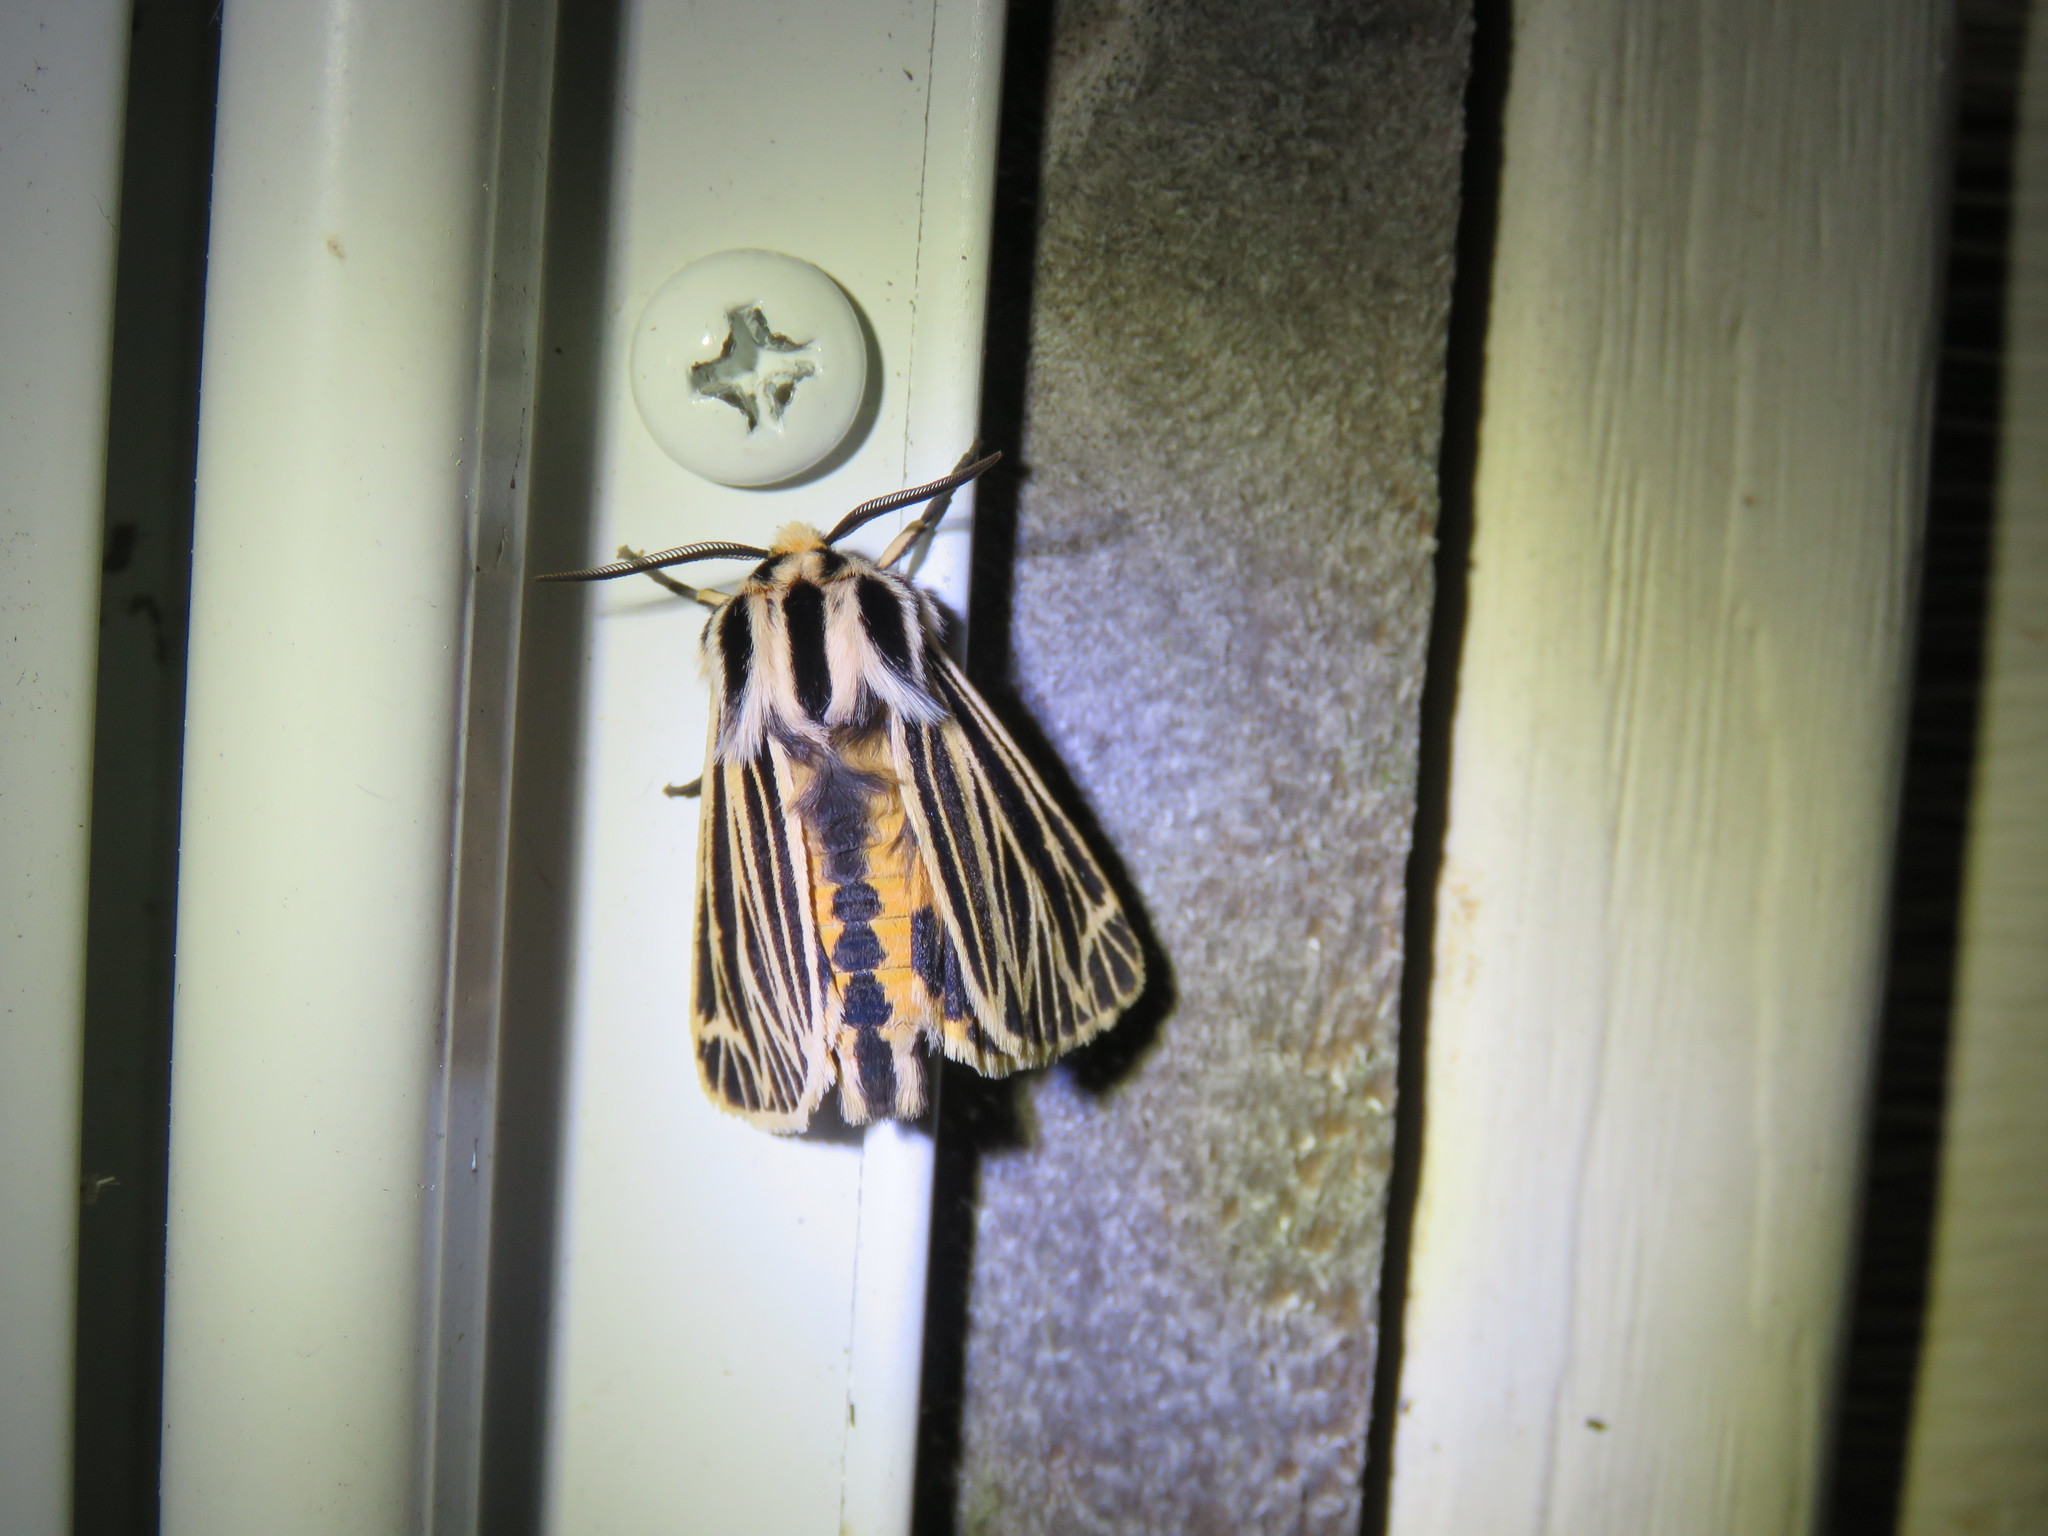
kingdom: Animalia
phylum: Arthropoda
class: Insecta
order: Lepidoptera
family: Erebidae
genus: Grammia
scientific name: Grammia virguncula
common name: Little tiger moth
